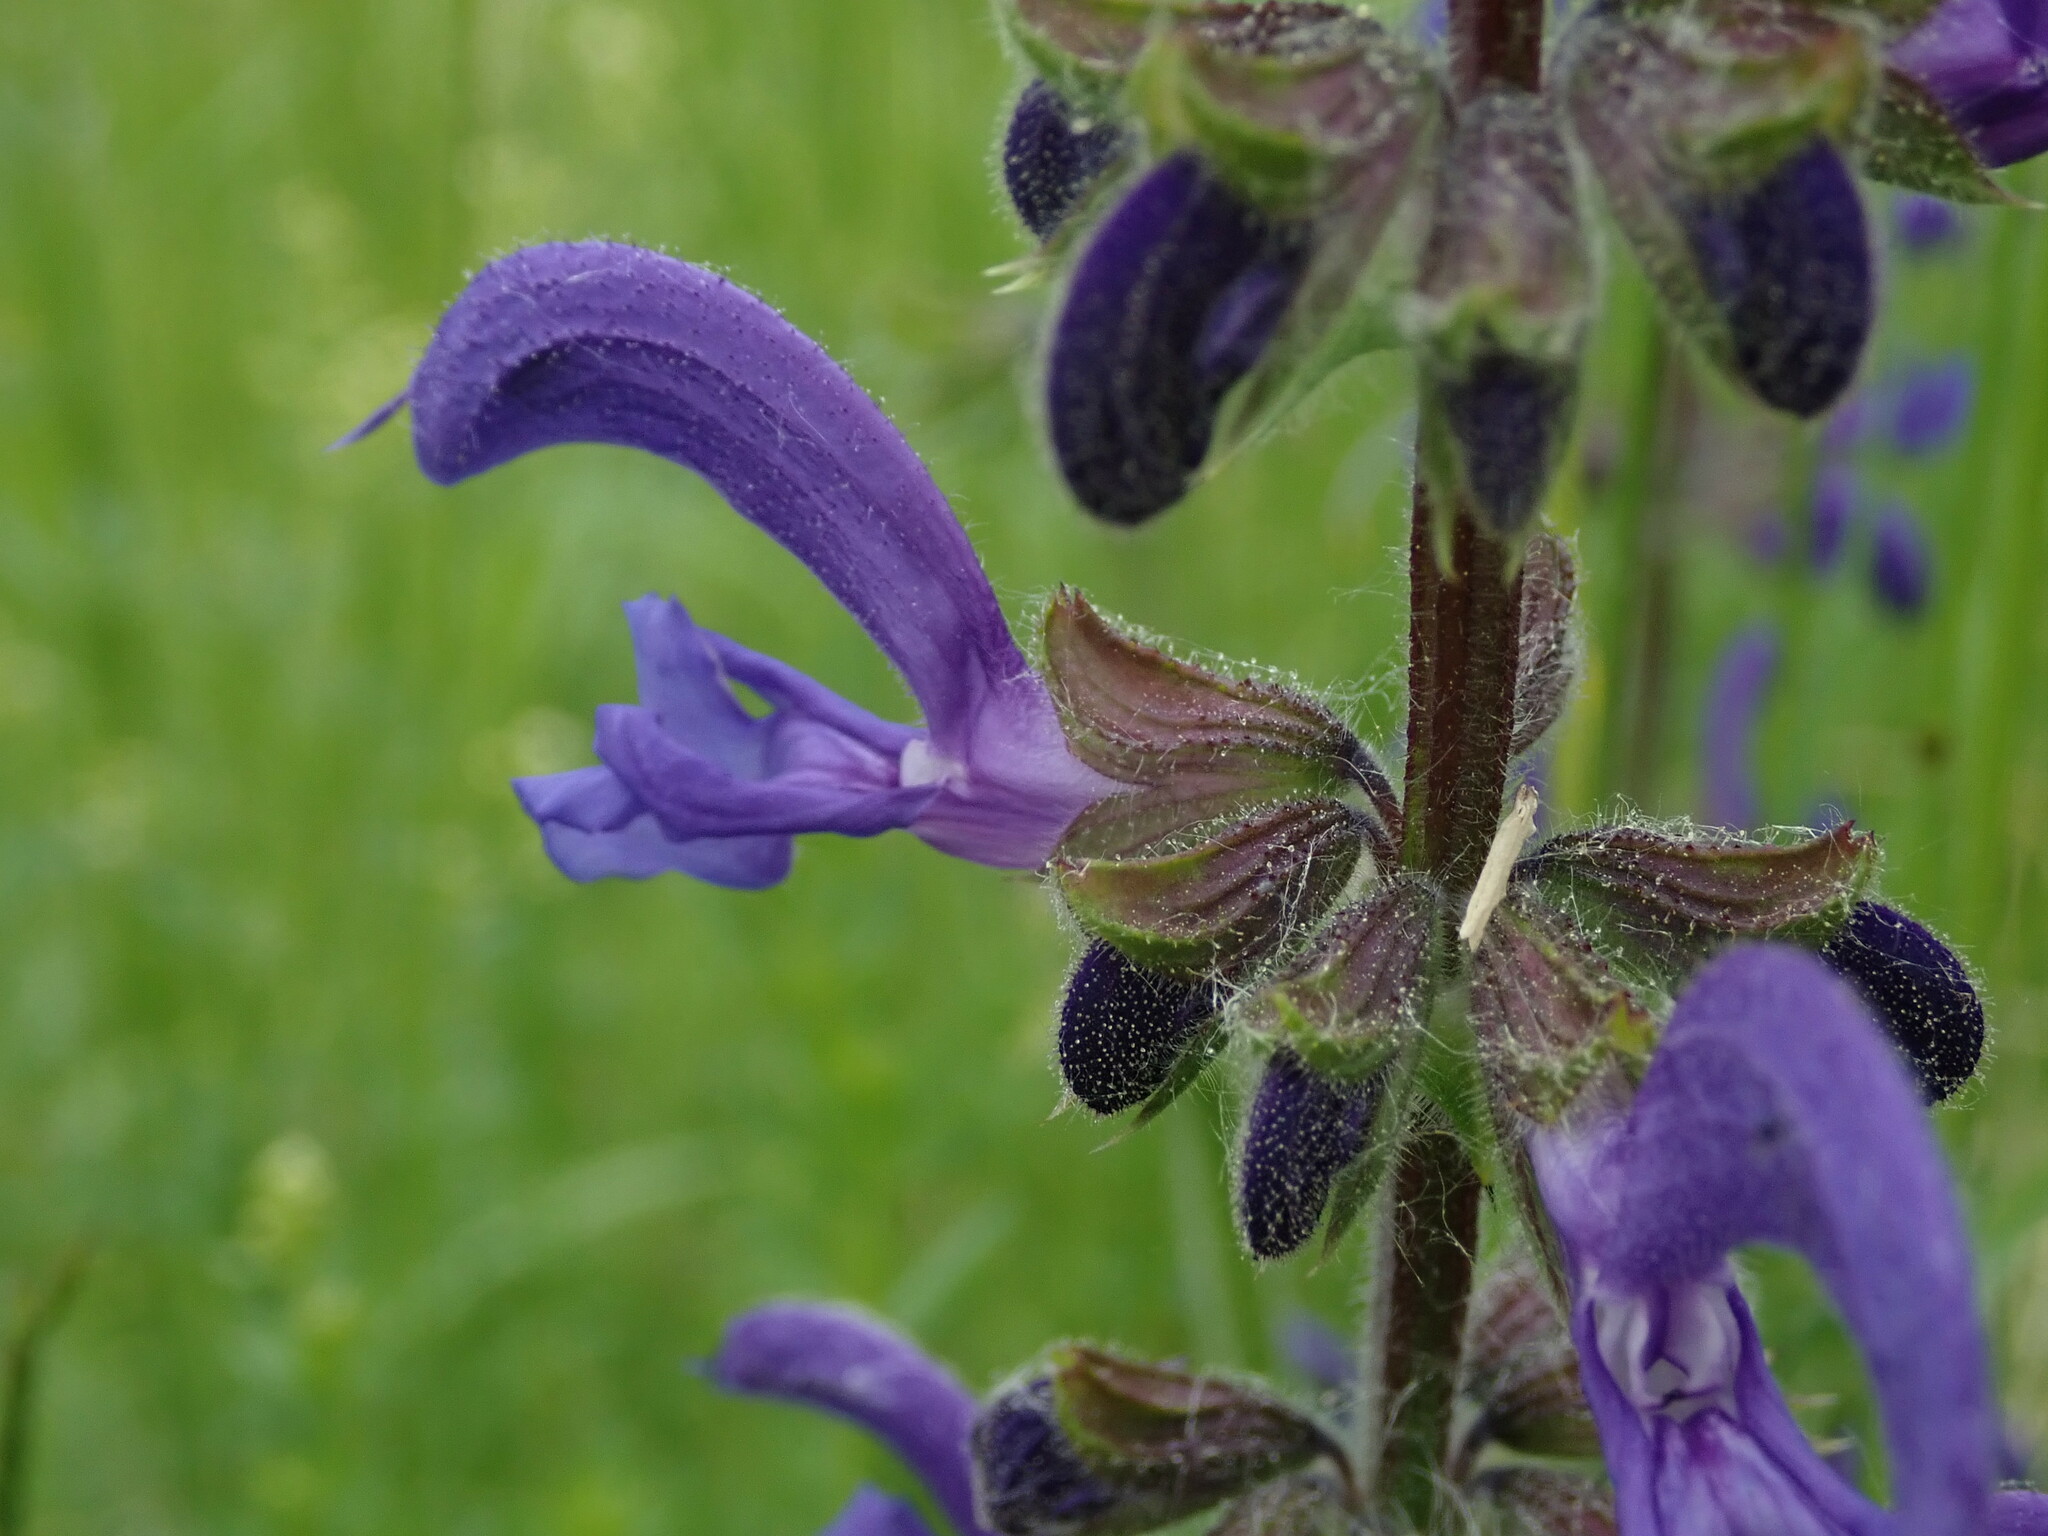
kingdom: Plantae
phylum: Tracheophyta
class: Magnoliopsida
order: Lamiales
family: Lamiaceae
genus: Salvia
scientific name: Salvia pratensis
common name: Meadow sage
